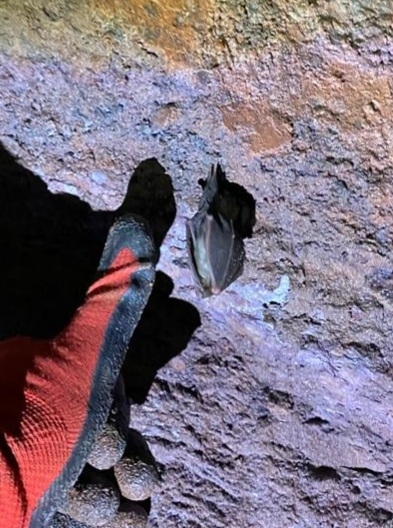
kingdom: Animalia
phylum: Chordata
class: Mammalia
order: Chiroptera
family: Rhinolophidae
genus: Rhinolophus
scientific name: Rhinolophus hipposideros
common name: Lesser horseshoe bat
